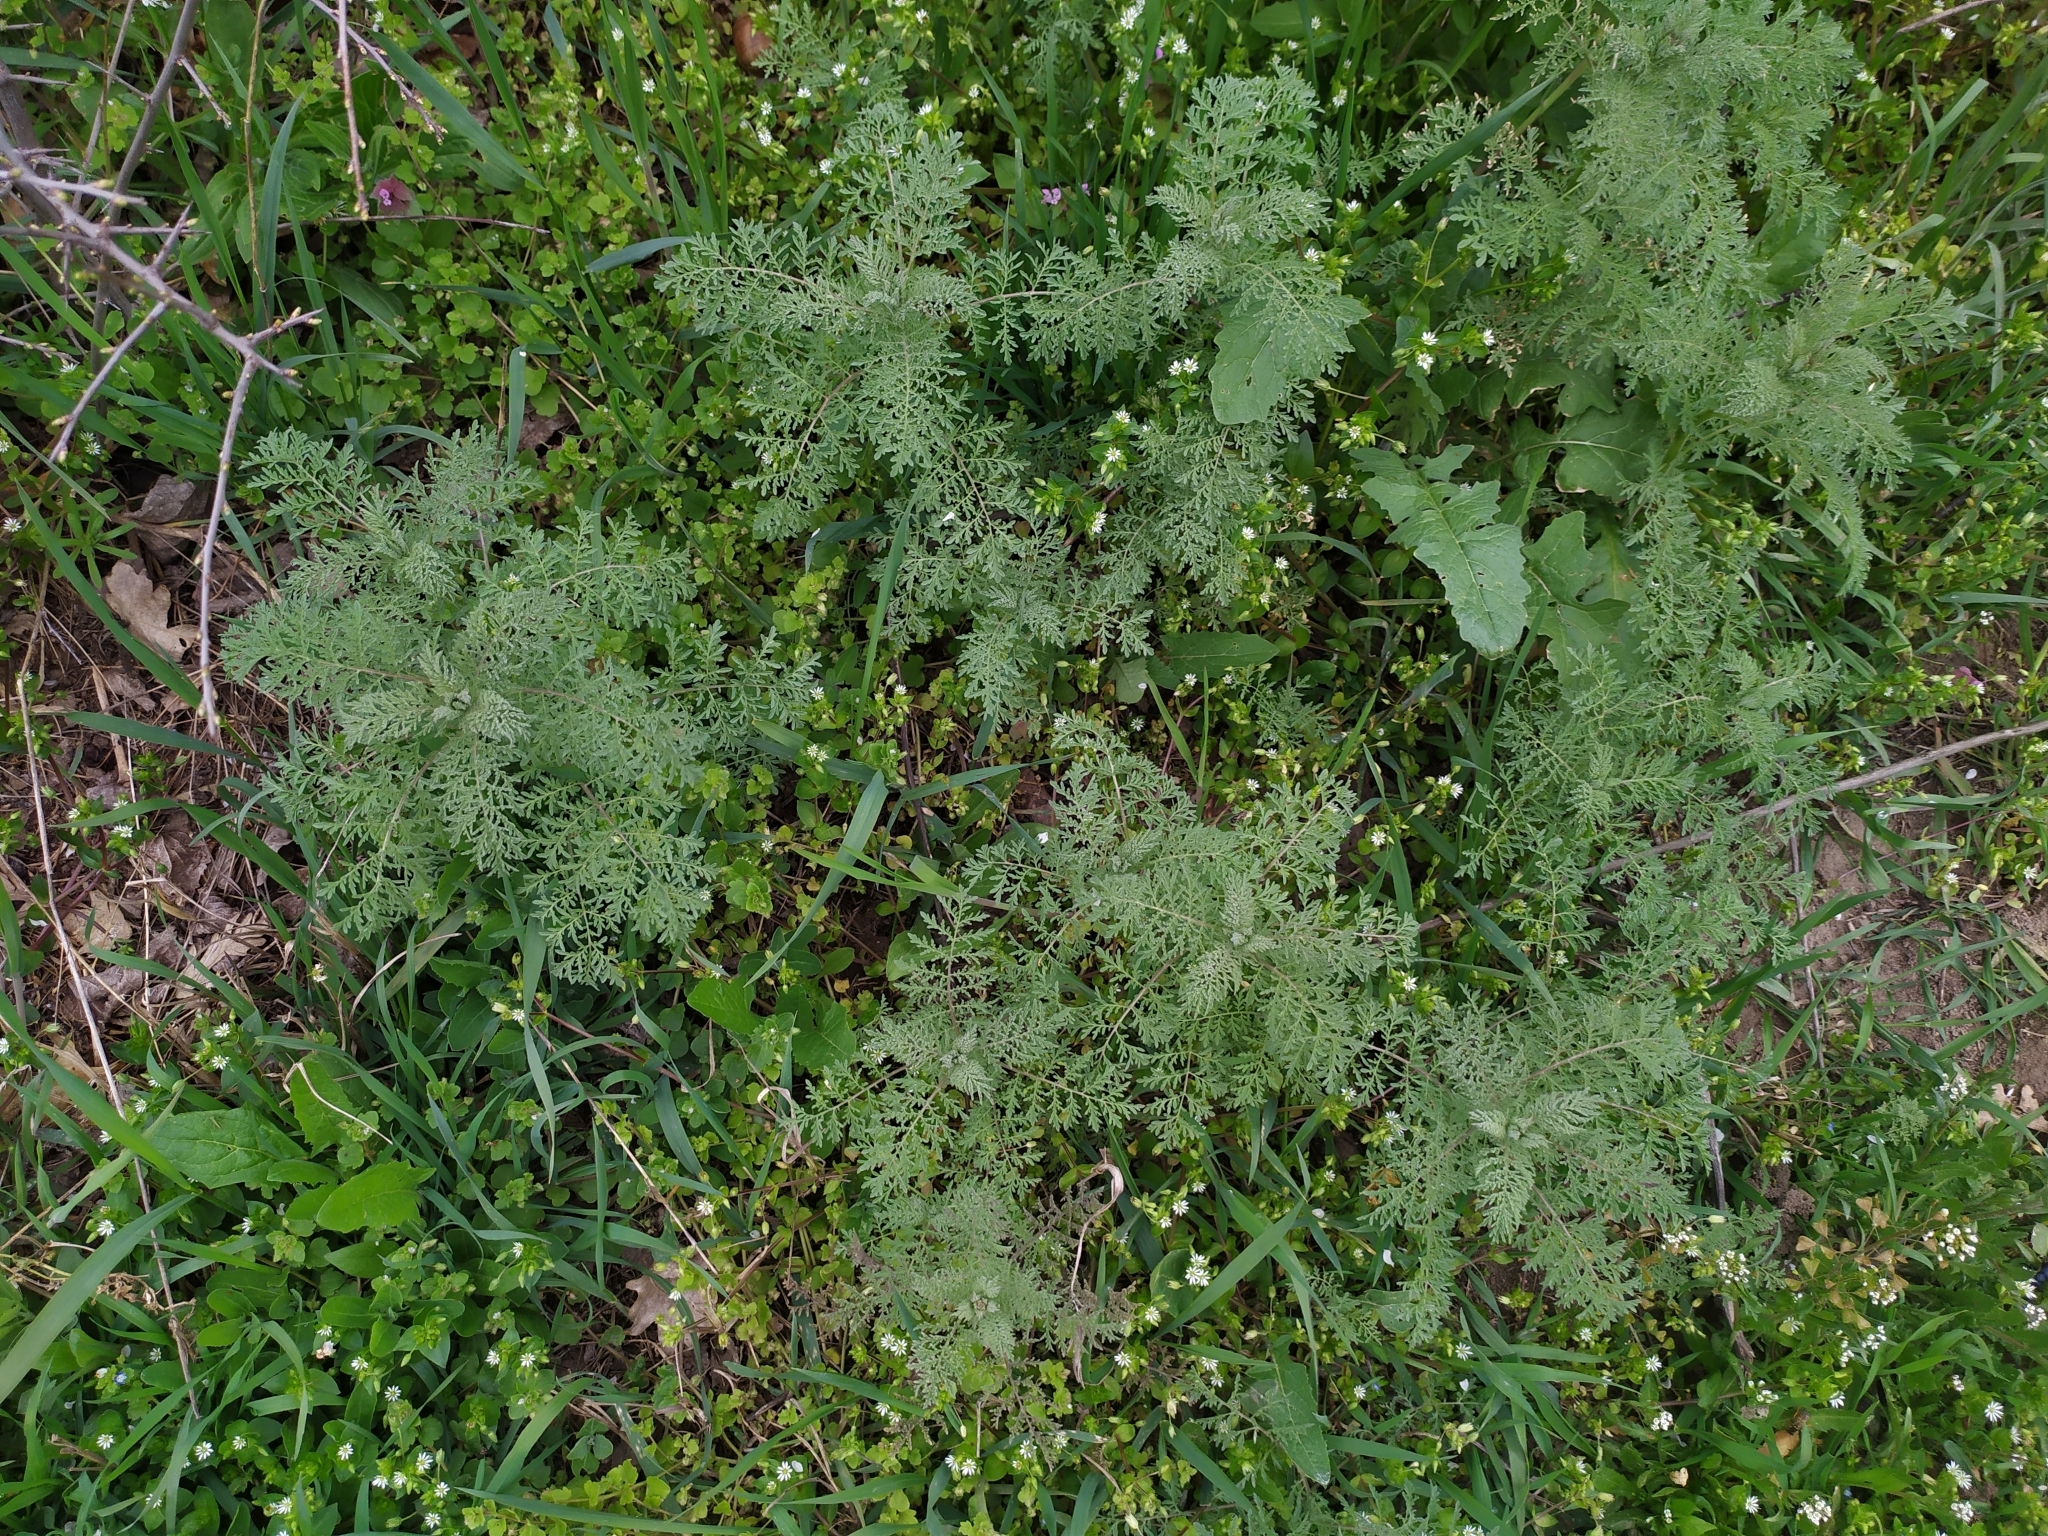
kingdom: Plantae
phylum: Tracheophyta
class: Magnoliopsida
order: Brassicales
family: Brassicaceae
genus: Descurainia
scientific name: Descurainia sophia
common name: Flixweed
